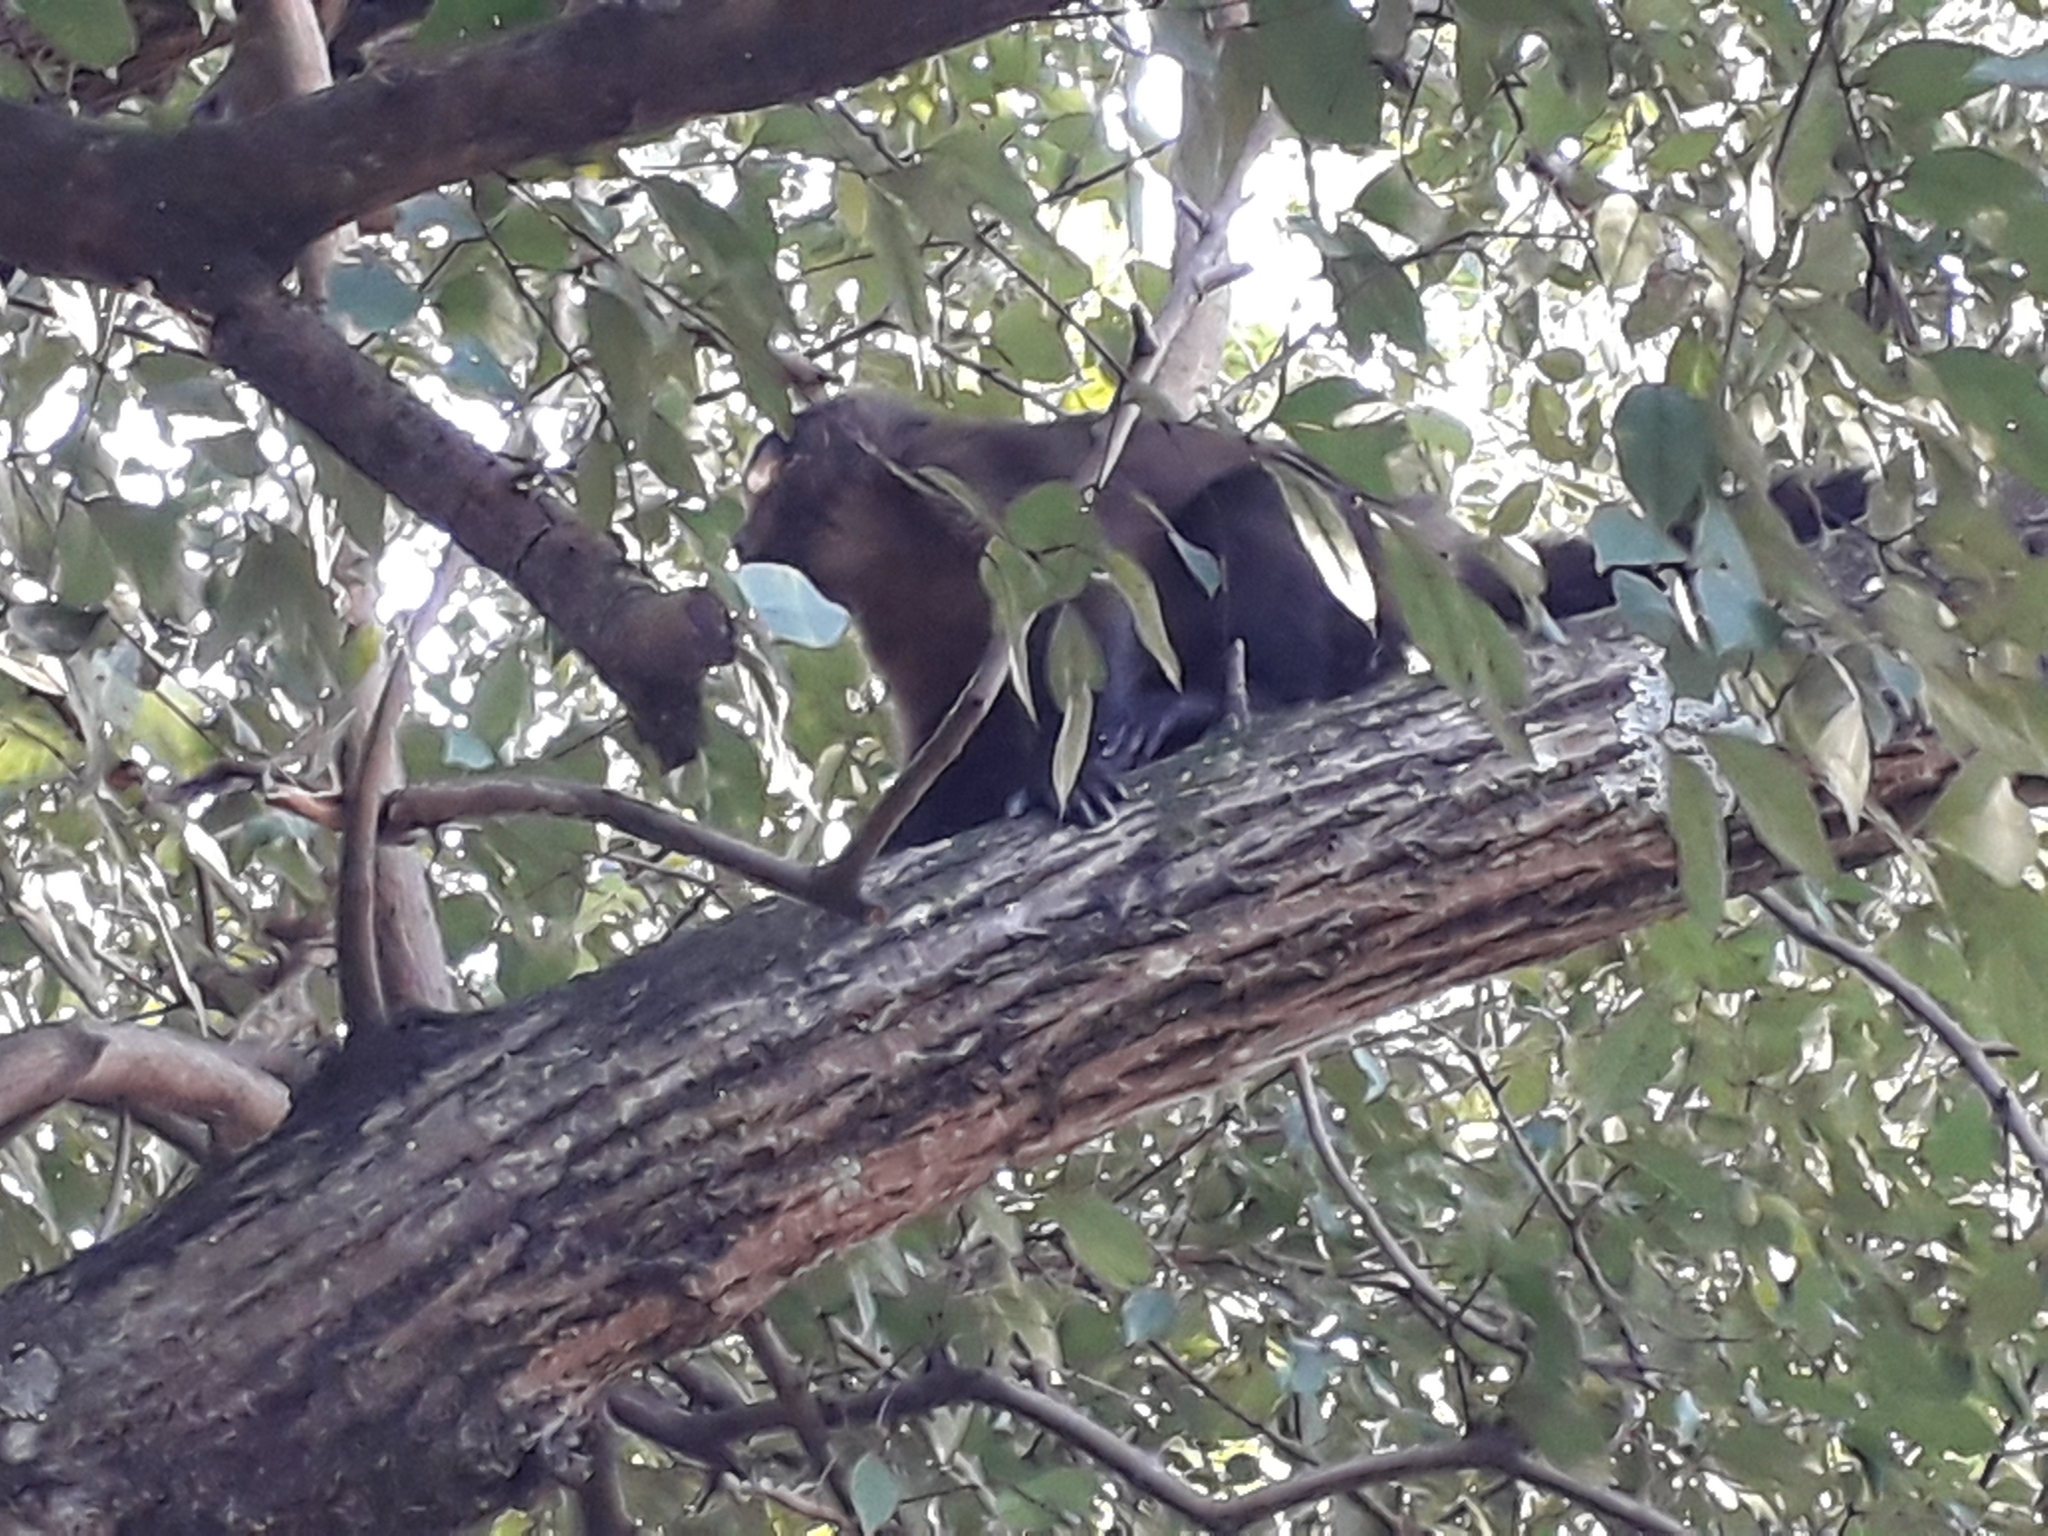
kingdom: Animalia
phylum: Chordata
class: Mammalia
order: Primates
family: Cebidae
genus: Sapajus
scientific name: Sapajus nigritus
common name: Black capuchin
